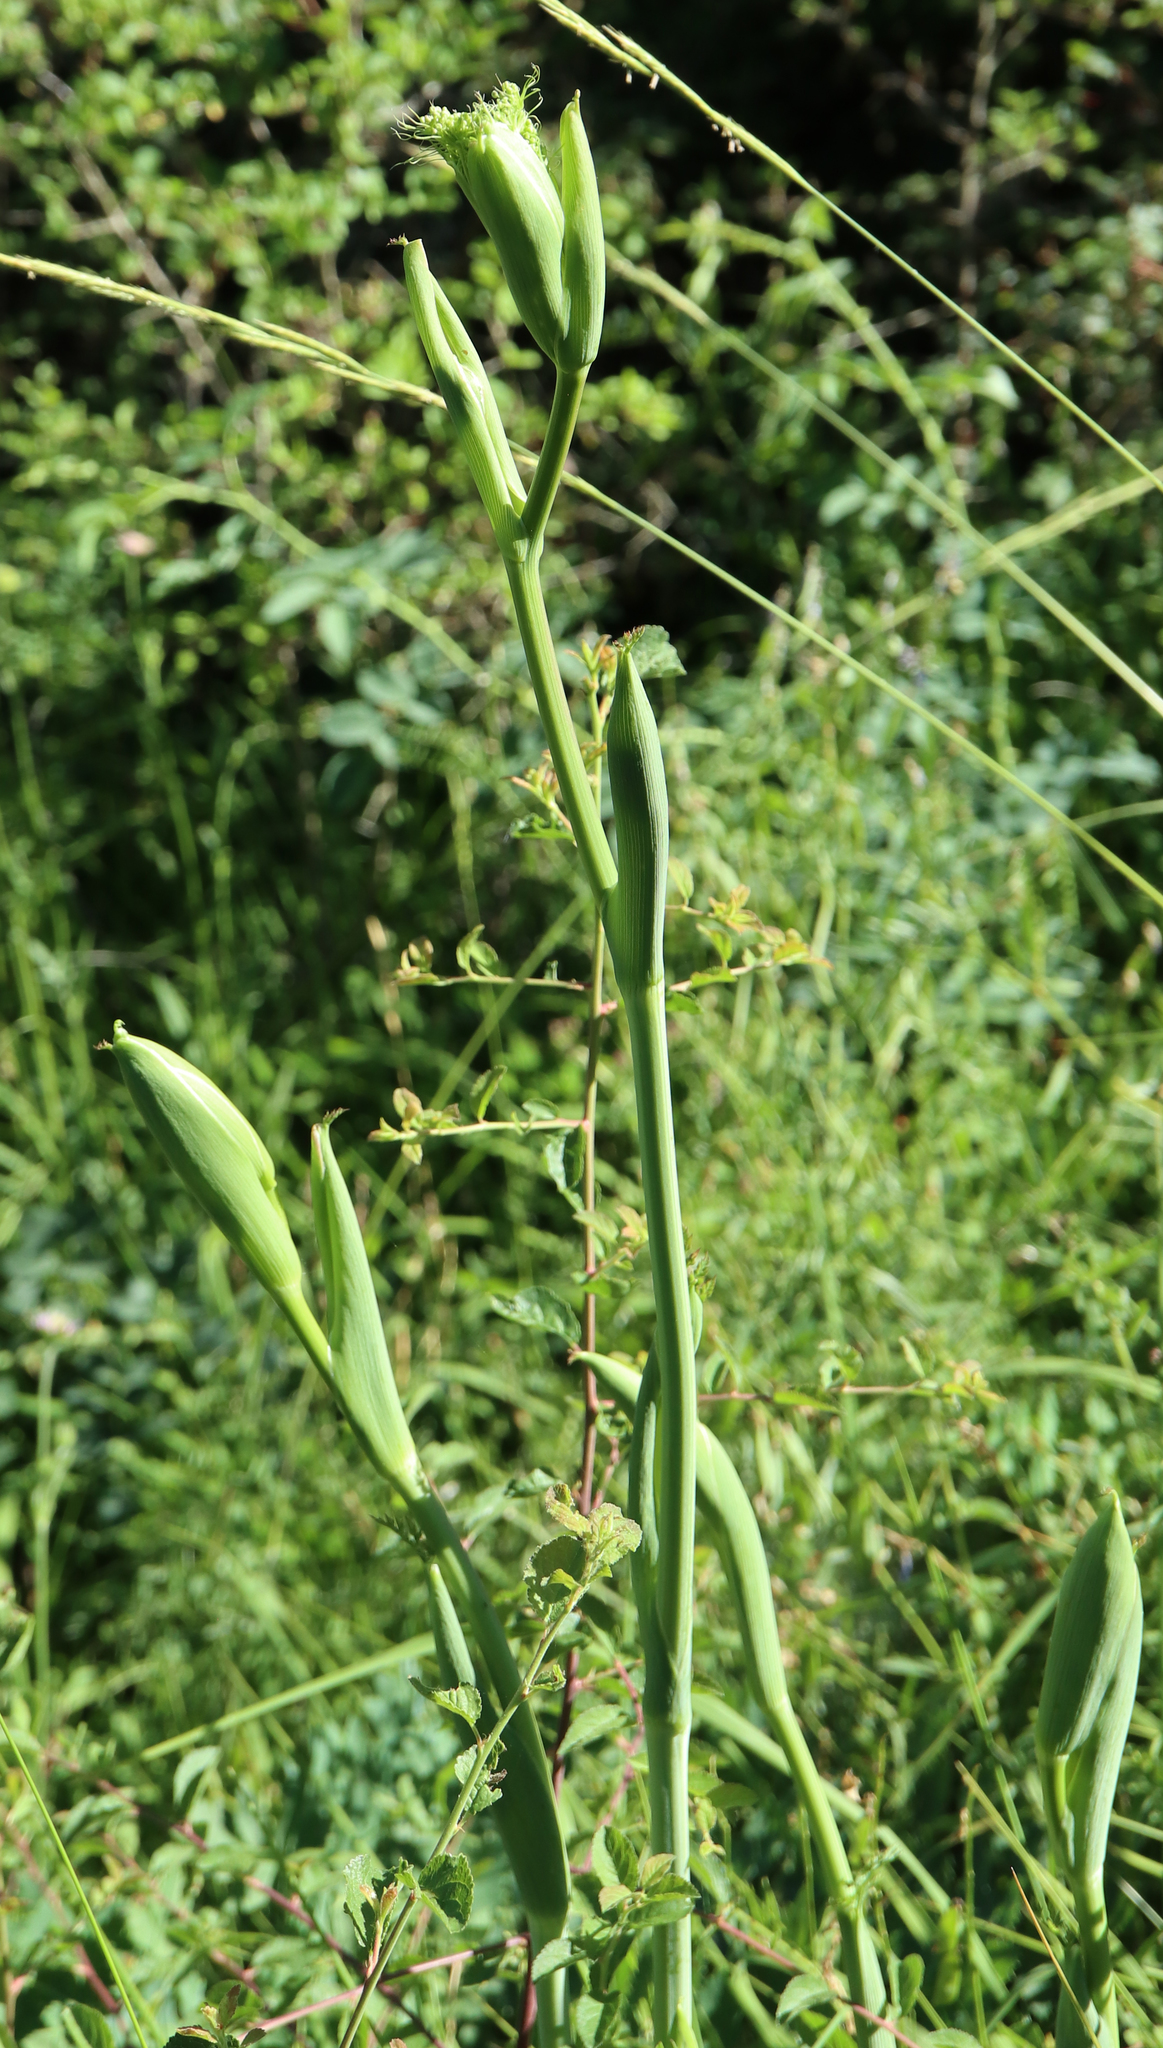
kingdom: Plantae
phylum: Tracheophyta
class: Magnoliopsida
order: Apiales
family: Apiaceae
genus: Cervaria
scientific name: Cervaria rivini
